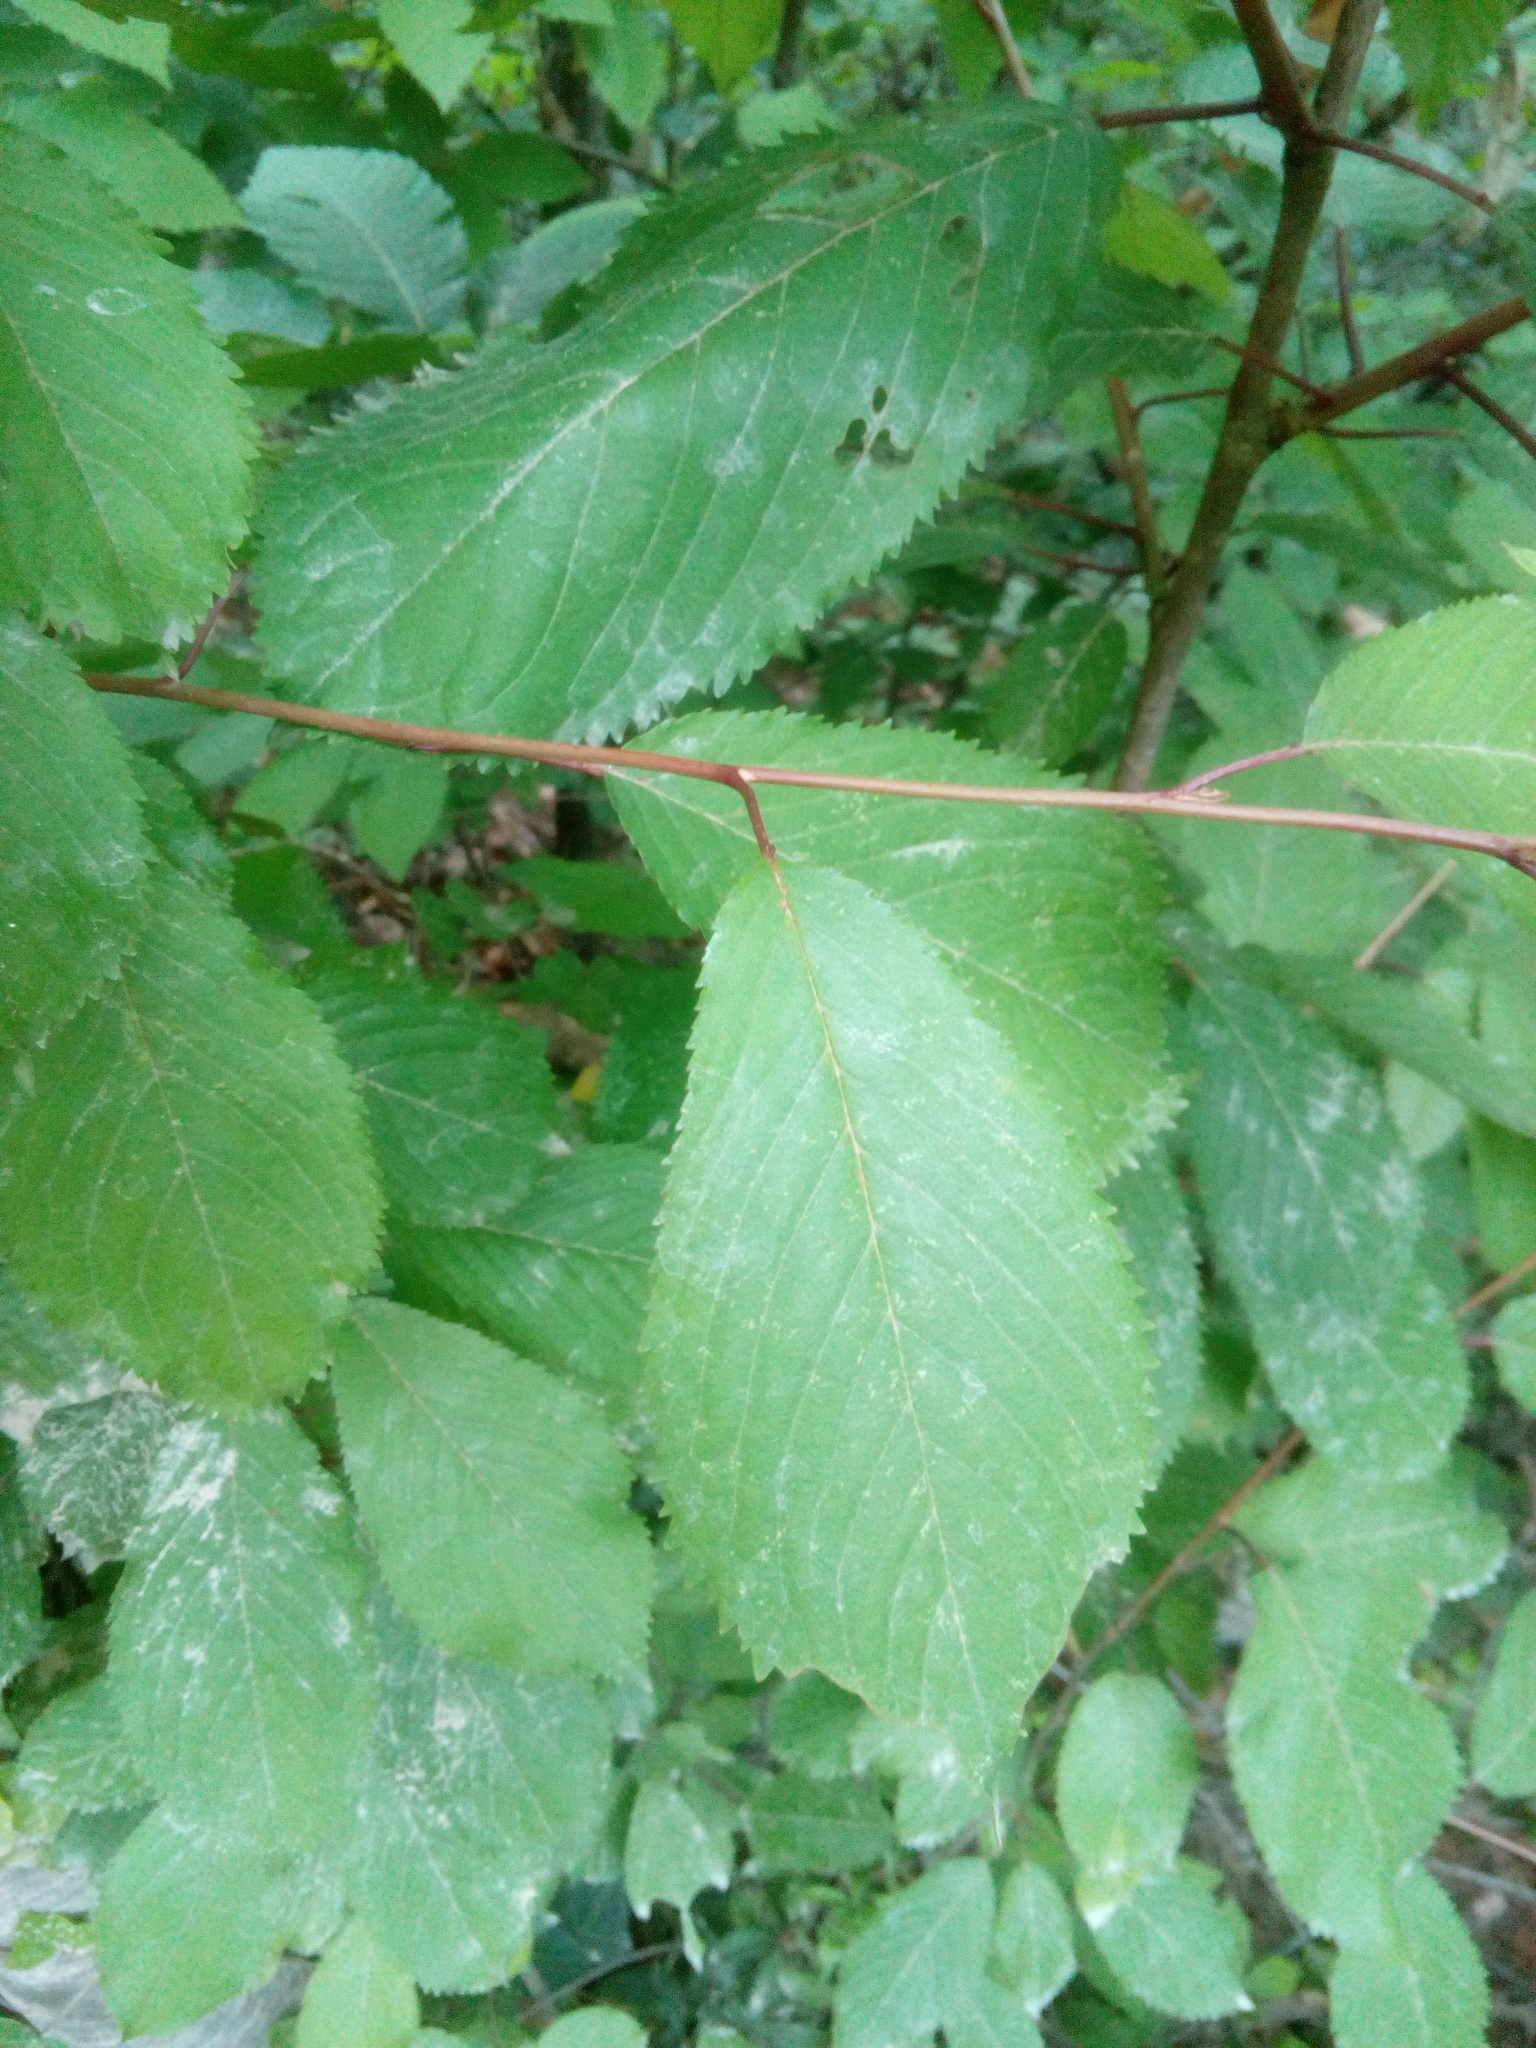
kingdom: Plantae
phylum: Tracheophyta
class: Magnoliopsida
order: Rosales
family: Rosaceae
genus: Prunus
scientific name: Prunus avium
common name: Sweet cherry
